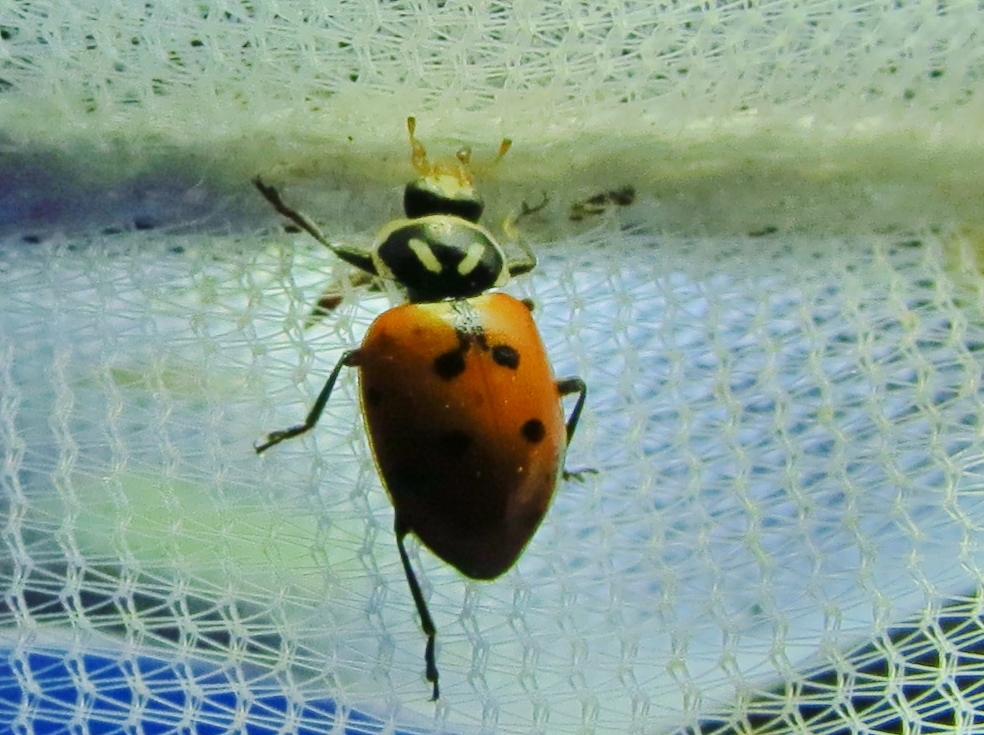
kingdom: Animalia
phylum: Arthropoda
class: Insecta
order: Coleoptera
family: Coccinellidae
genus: Hippodamia
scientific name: Hippodamia convergens
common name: Convergent lady beetle
